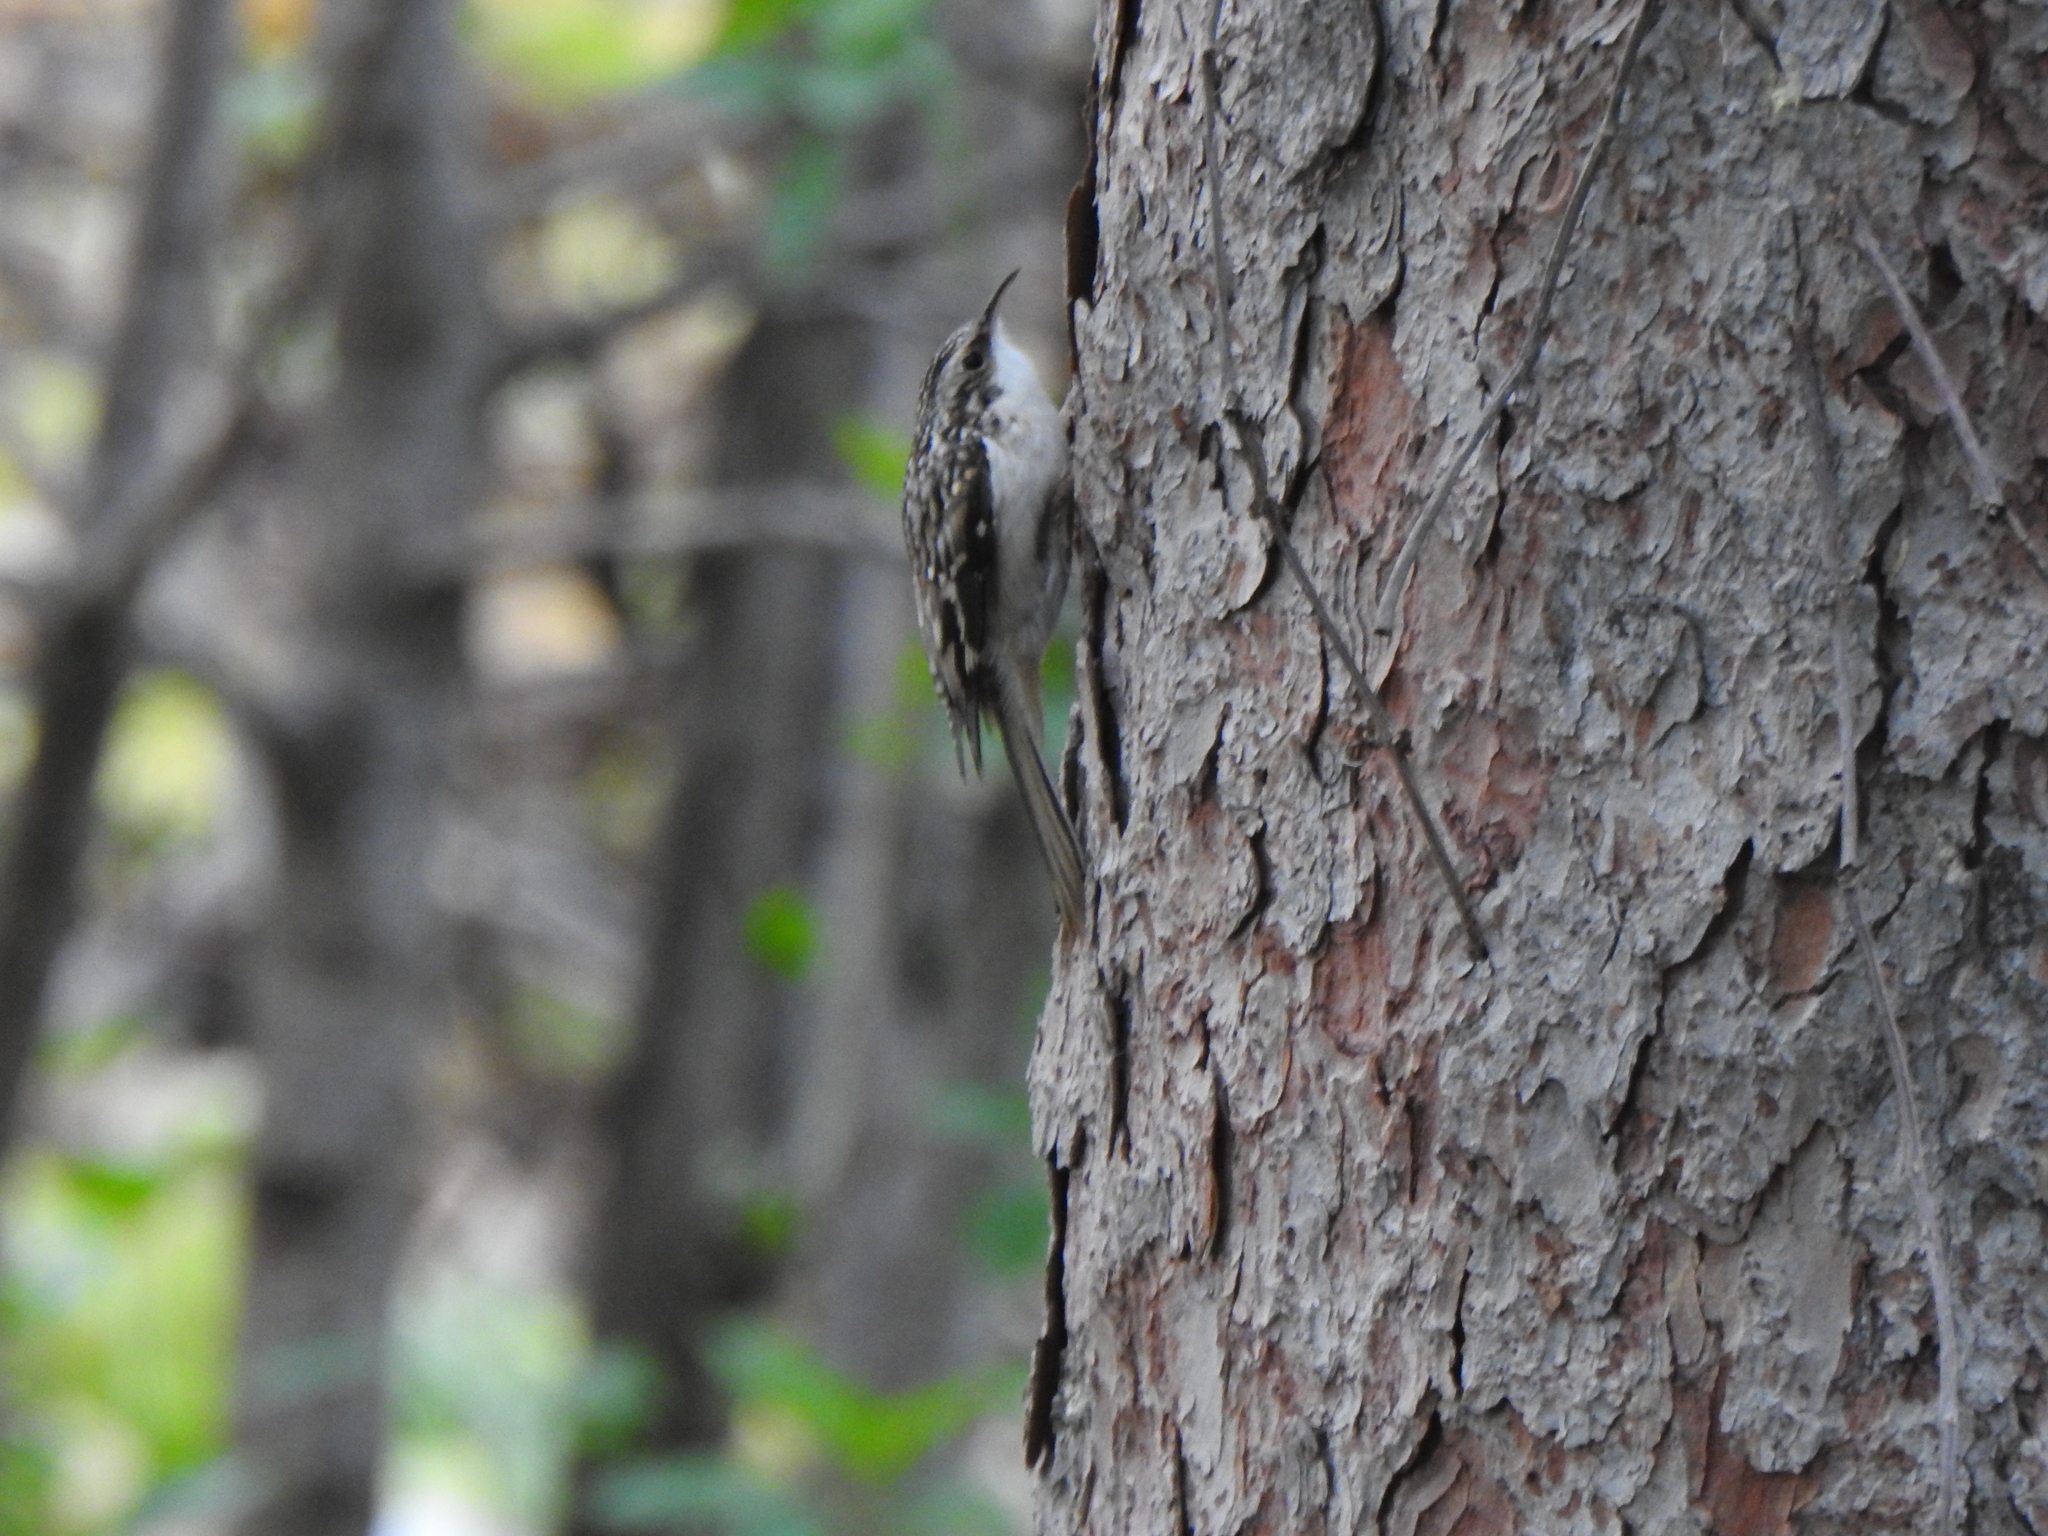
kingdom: Animalia
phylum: Chordata
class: Aves
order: Passeriformes
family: Certhiidae
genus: Certhia
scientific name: Certhia americana
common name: Brown creeper
